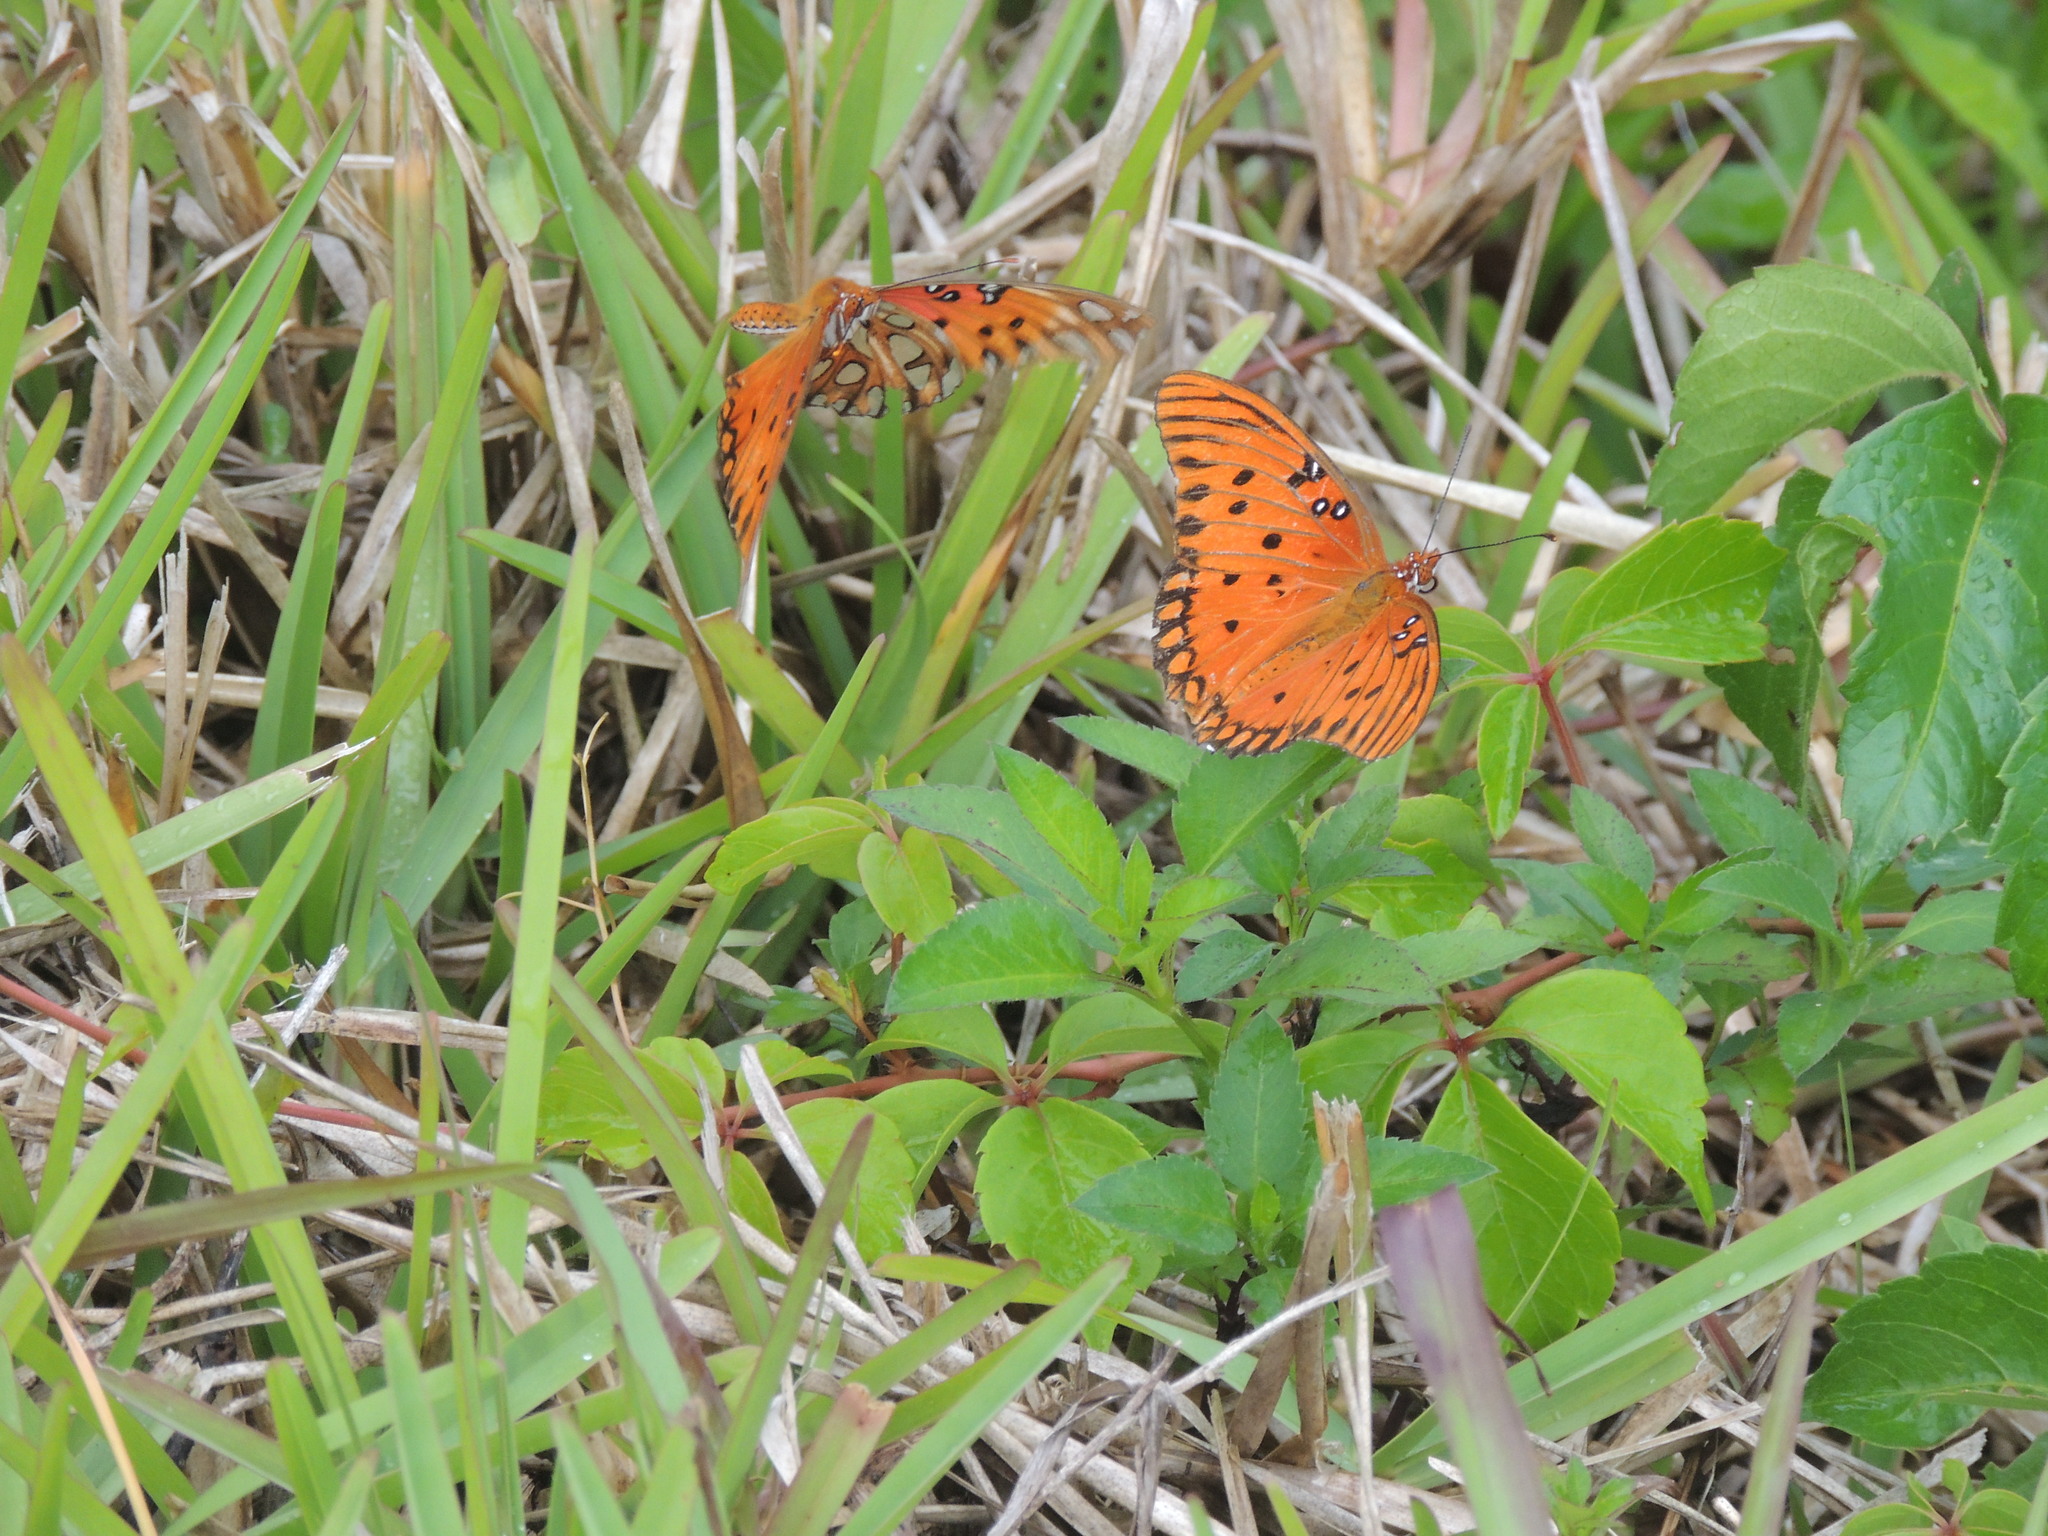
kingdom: Animalia
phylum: Arthropoda
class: Insecta
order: Lepidoptera
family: Nymphalidae
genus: Dione
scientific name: Dione vanillae
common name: Gulf fritillary
